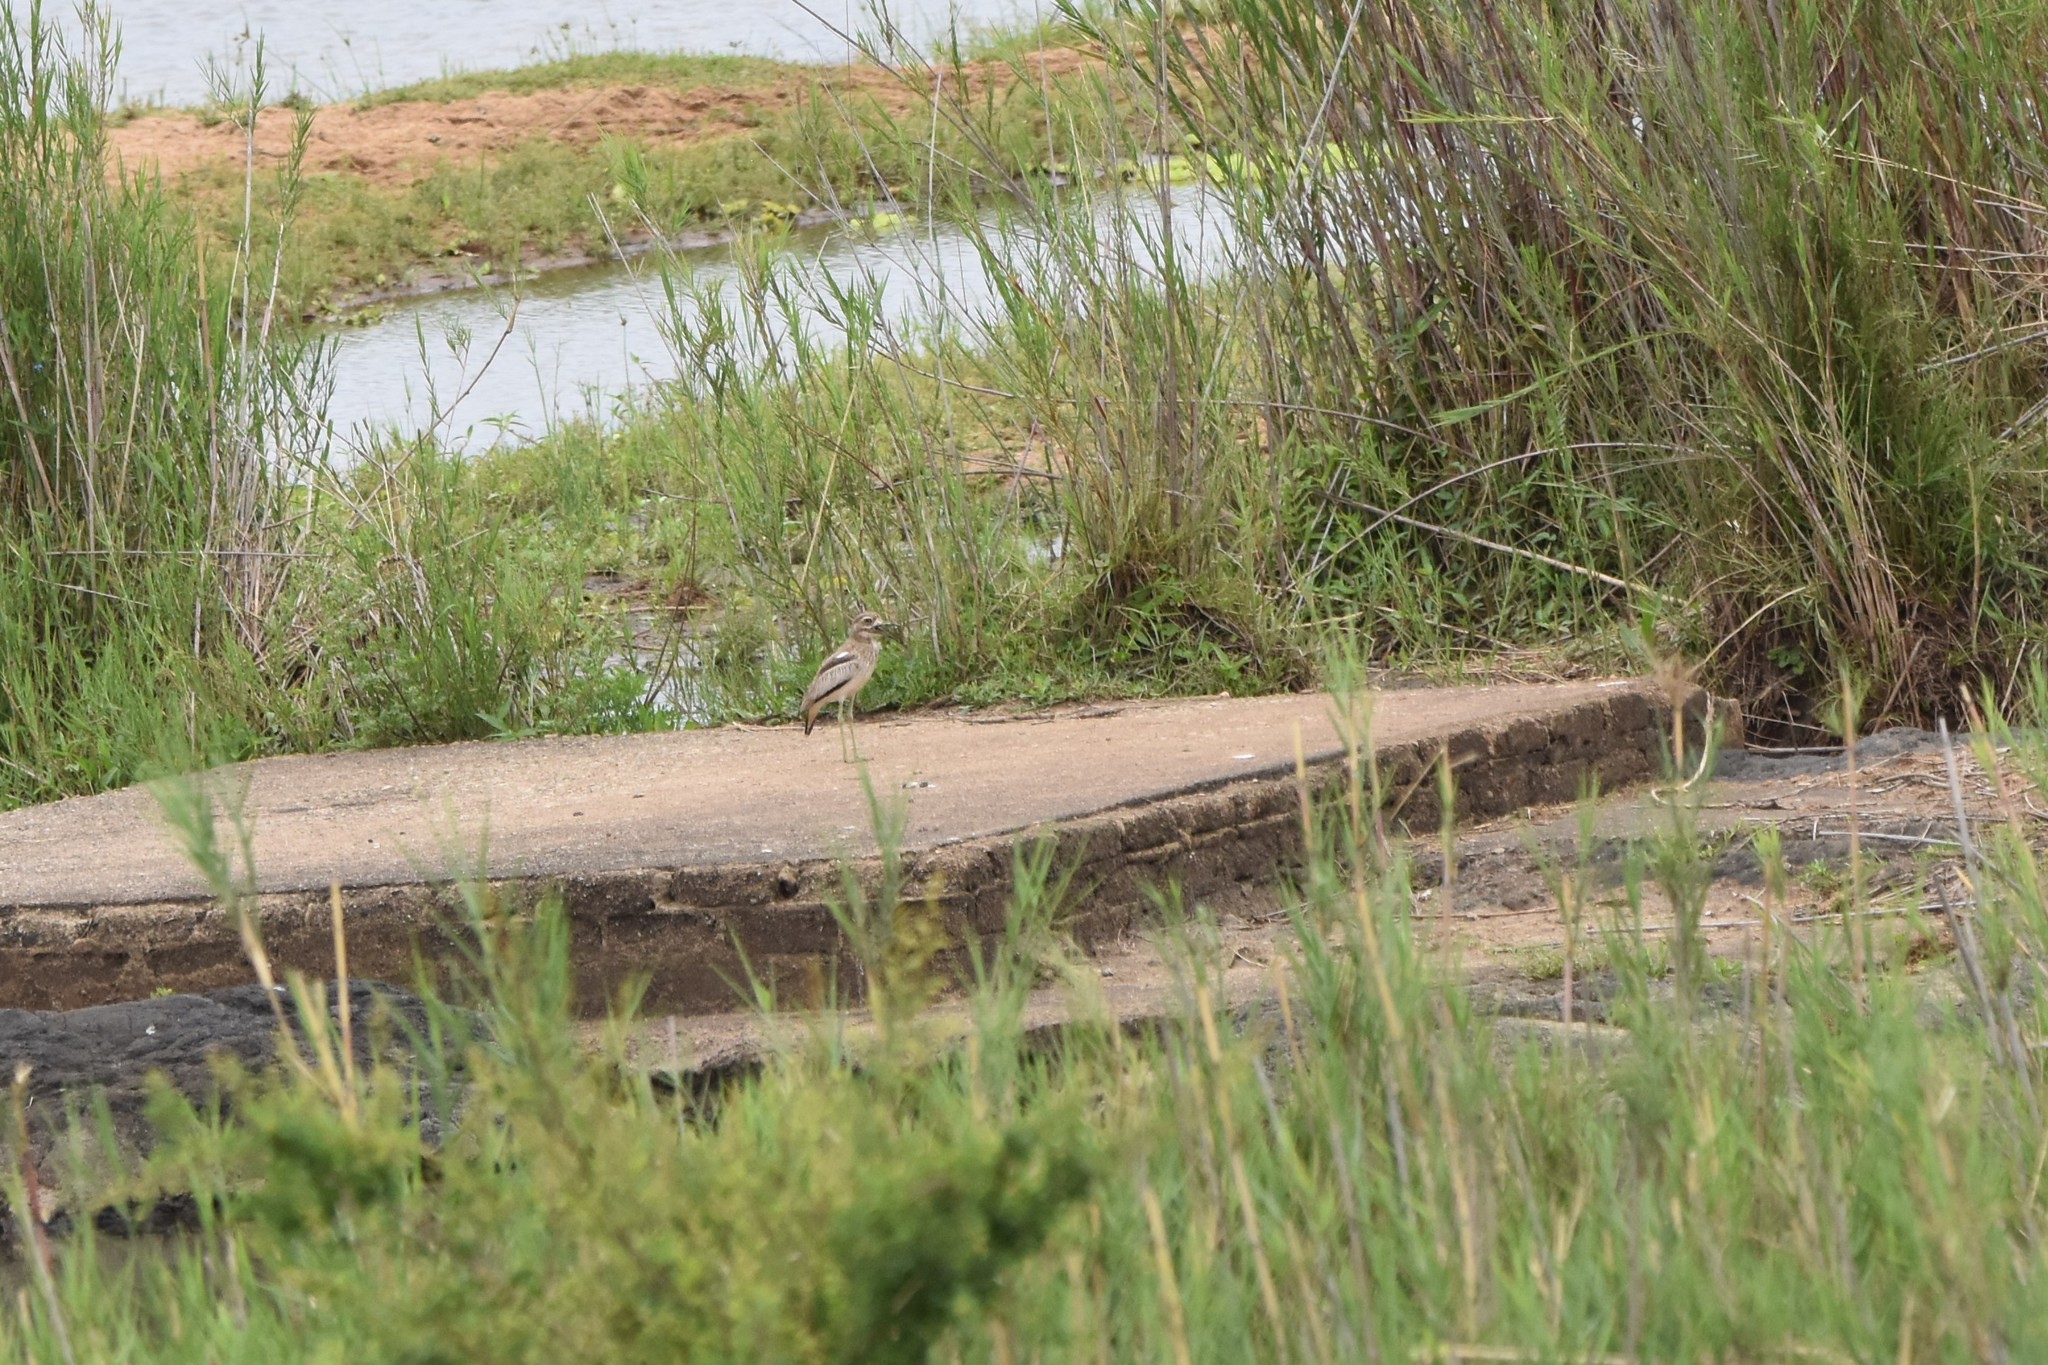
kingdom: Animalia
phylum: Chordata
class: Aves
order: Charadriiformes
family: Burhinidae
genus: Burhinus
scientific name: Burhinus vermiculatus
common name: Water thick-knee
